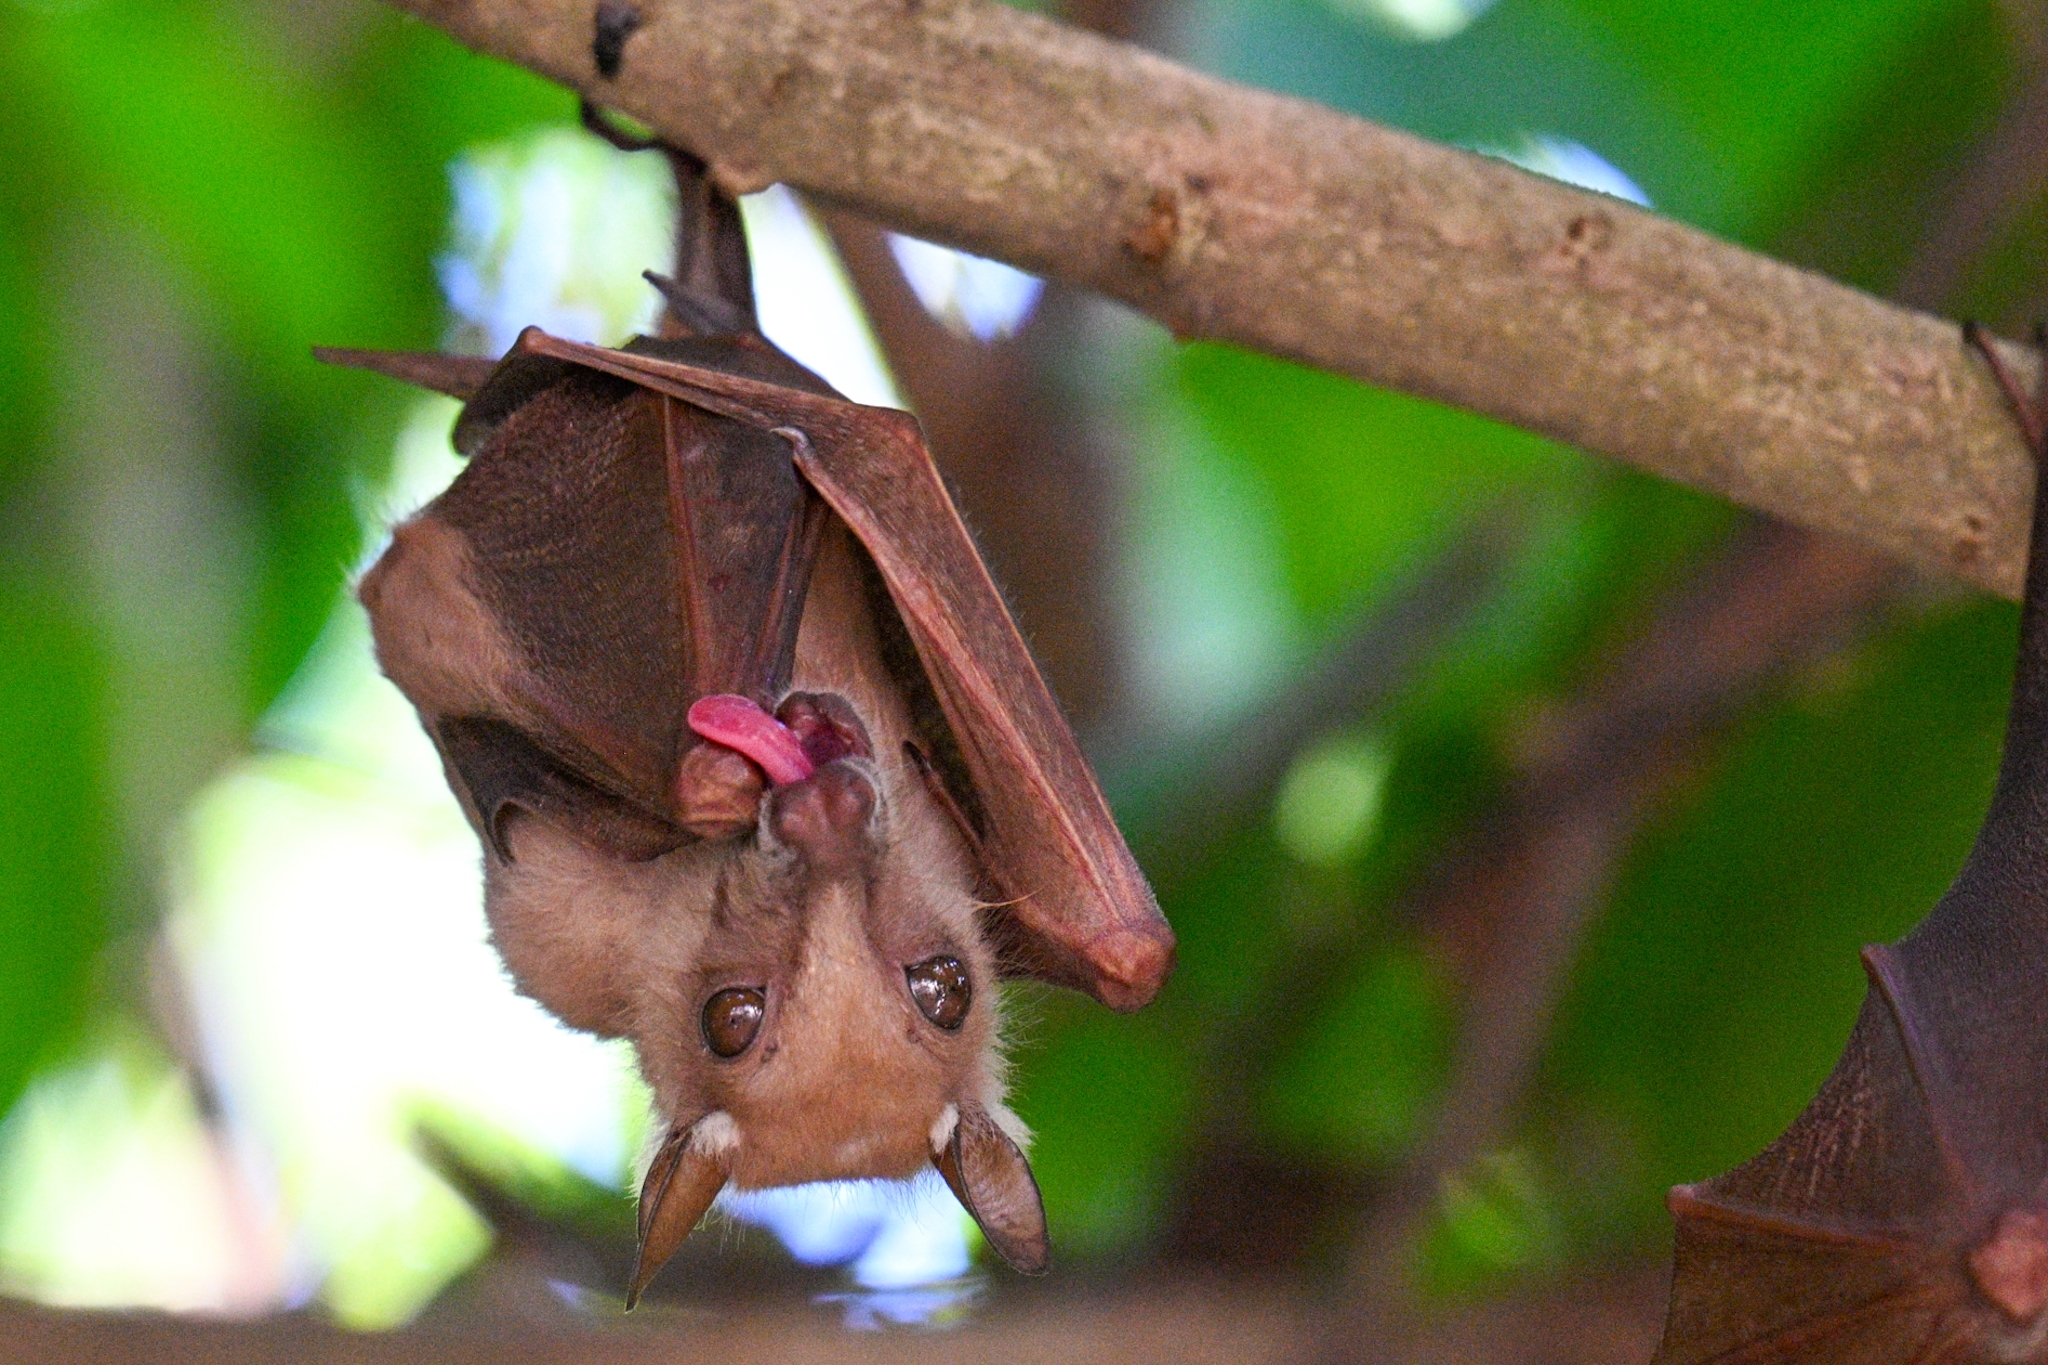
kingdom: Animalia
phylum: Chordata
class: Mammalia
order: Chiroptera
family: Pteropodidae
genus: Epomophorus
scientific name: Epomophorus gambianus
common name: Gambian epauletted fruit bat
